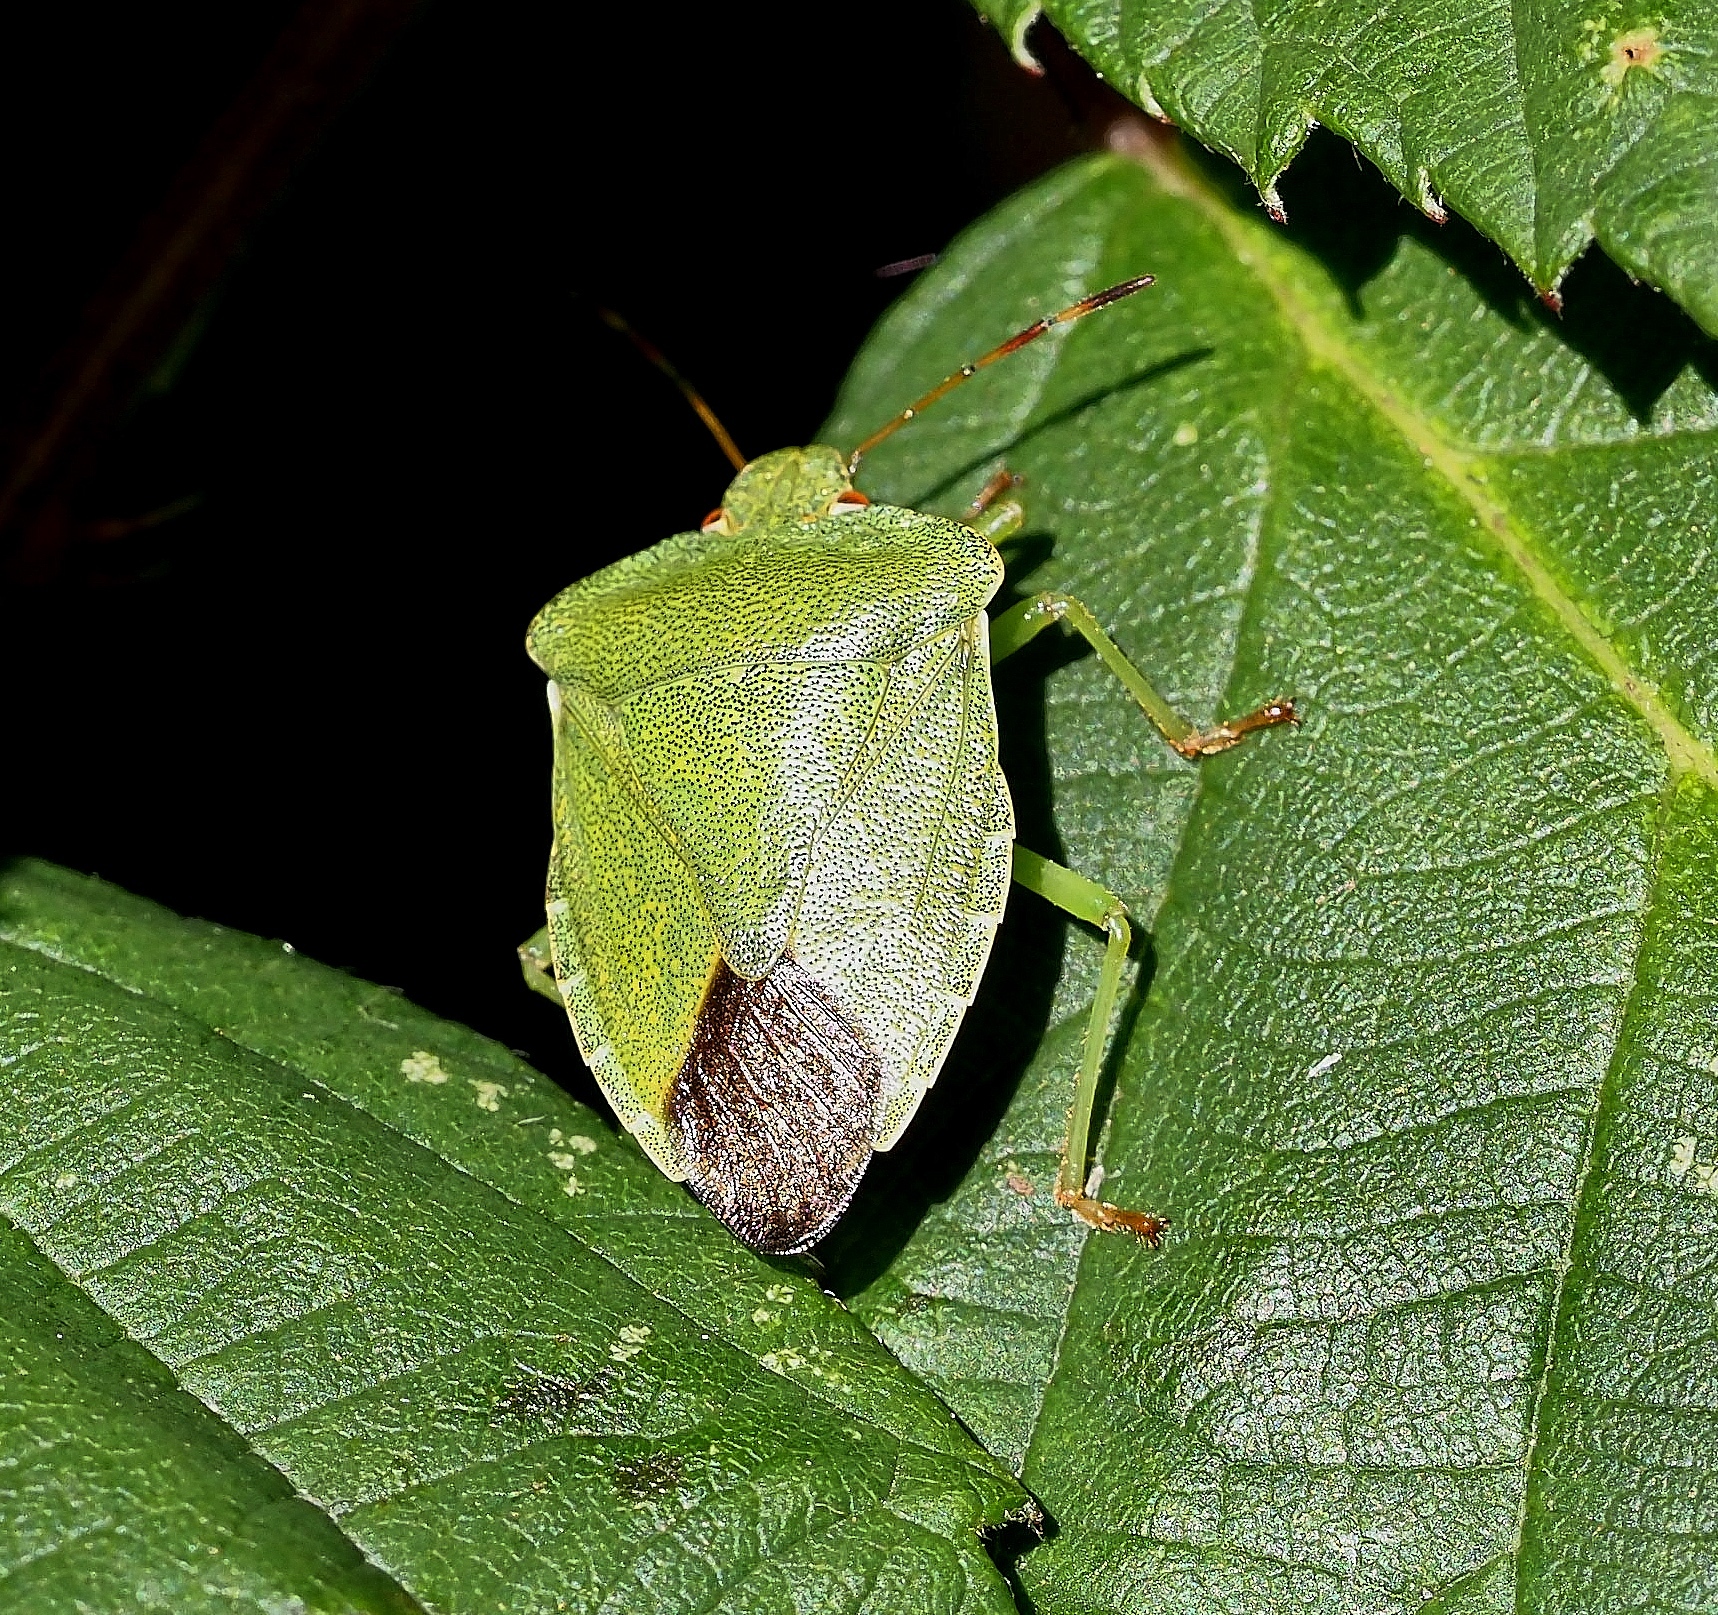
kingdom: Animalia
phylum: Arthropoda
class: Insecta
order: Hemiptera
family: Pentatomidae
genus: Palomena
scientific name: Palomena prasina
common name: Green shieldbug
